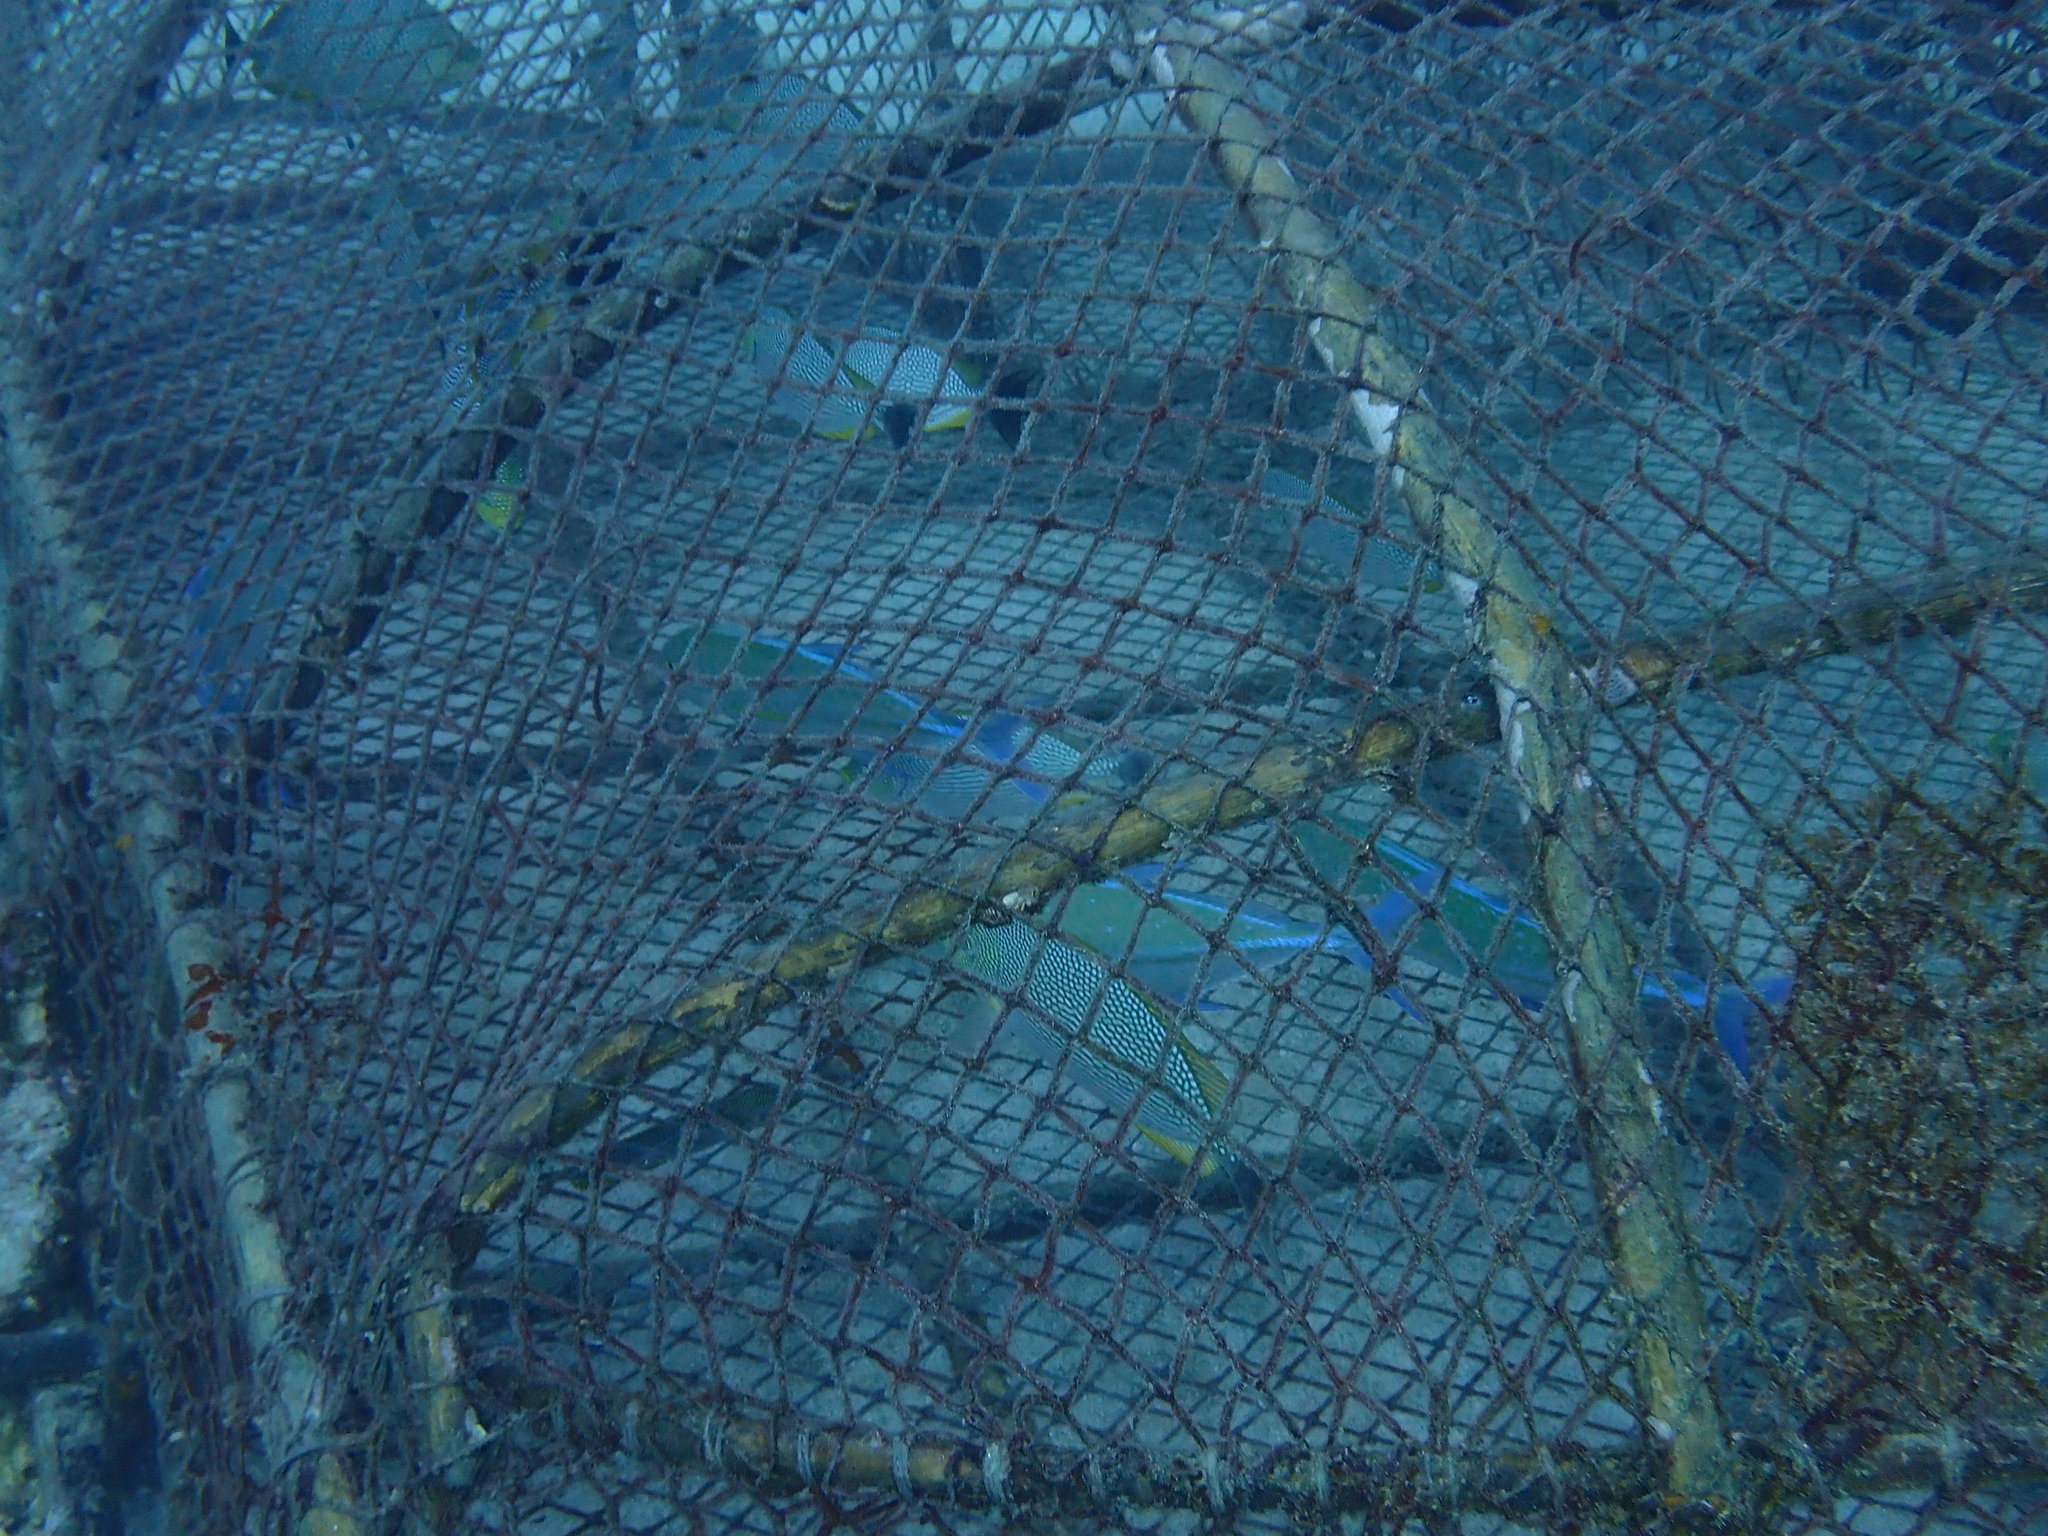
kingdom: Animalia
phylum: Chordata
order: Perciformes
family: Carangidae
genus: Caranx
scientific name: Caranx melampygus
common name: Bluefin trevally
